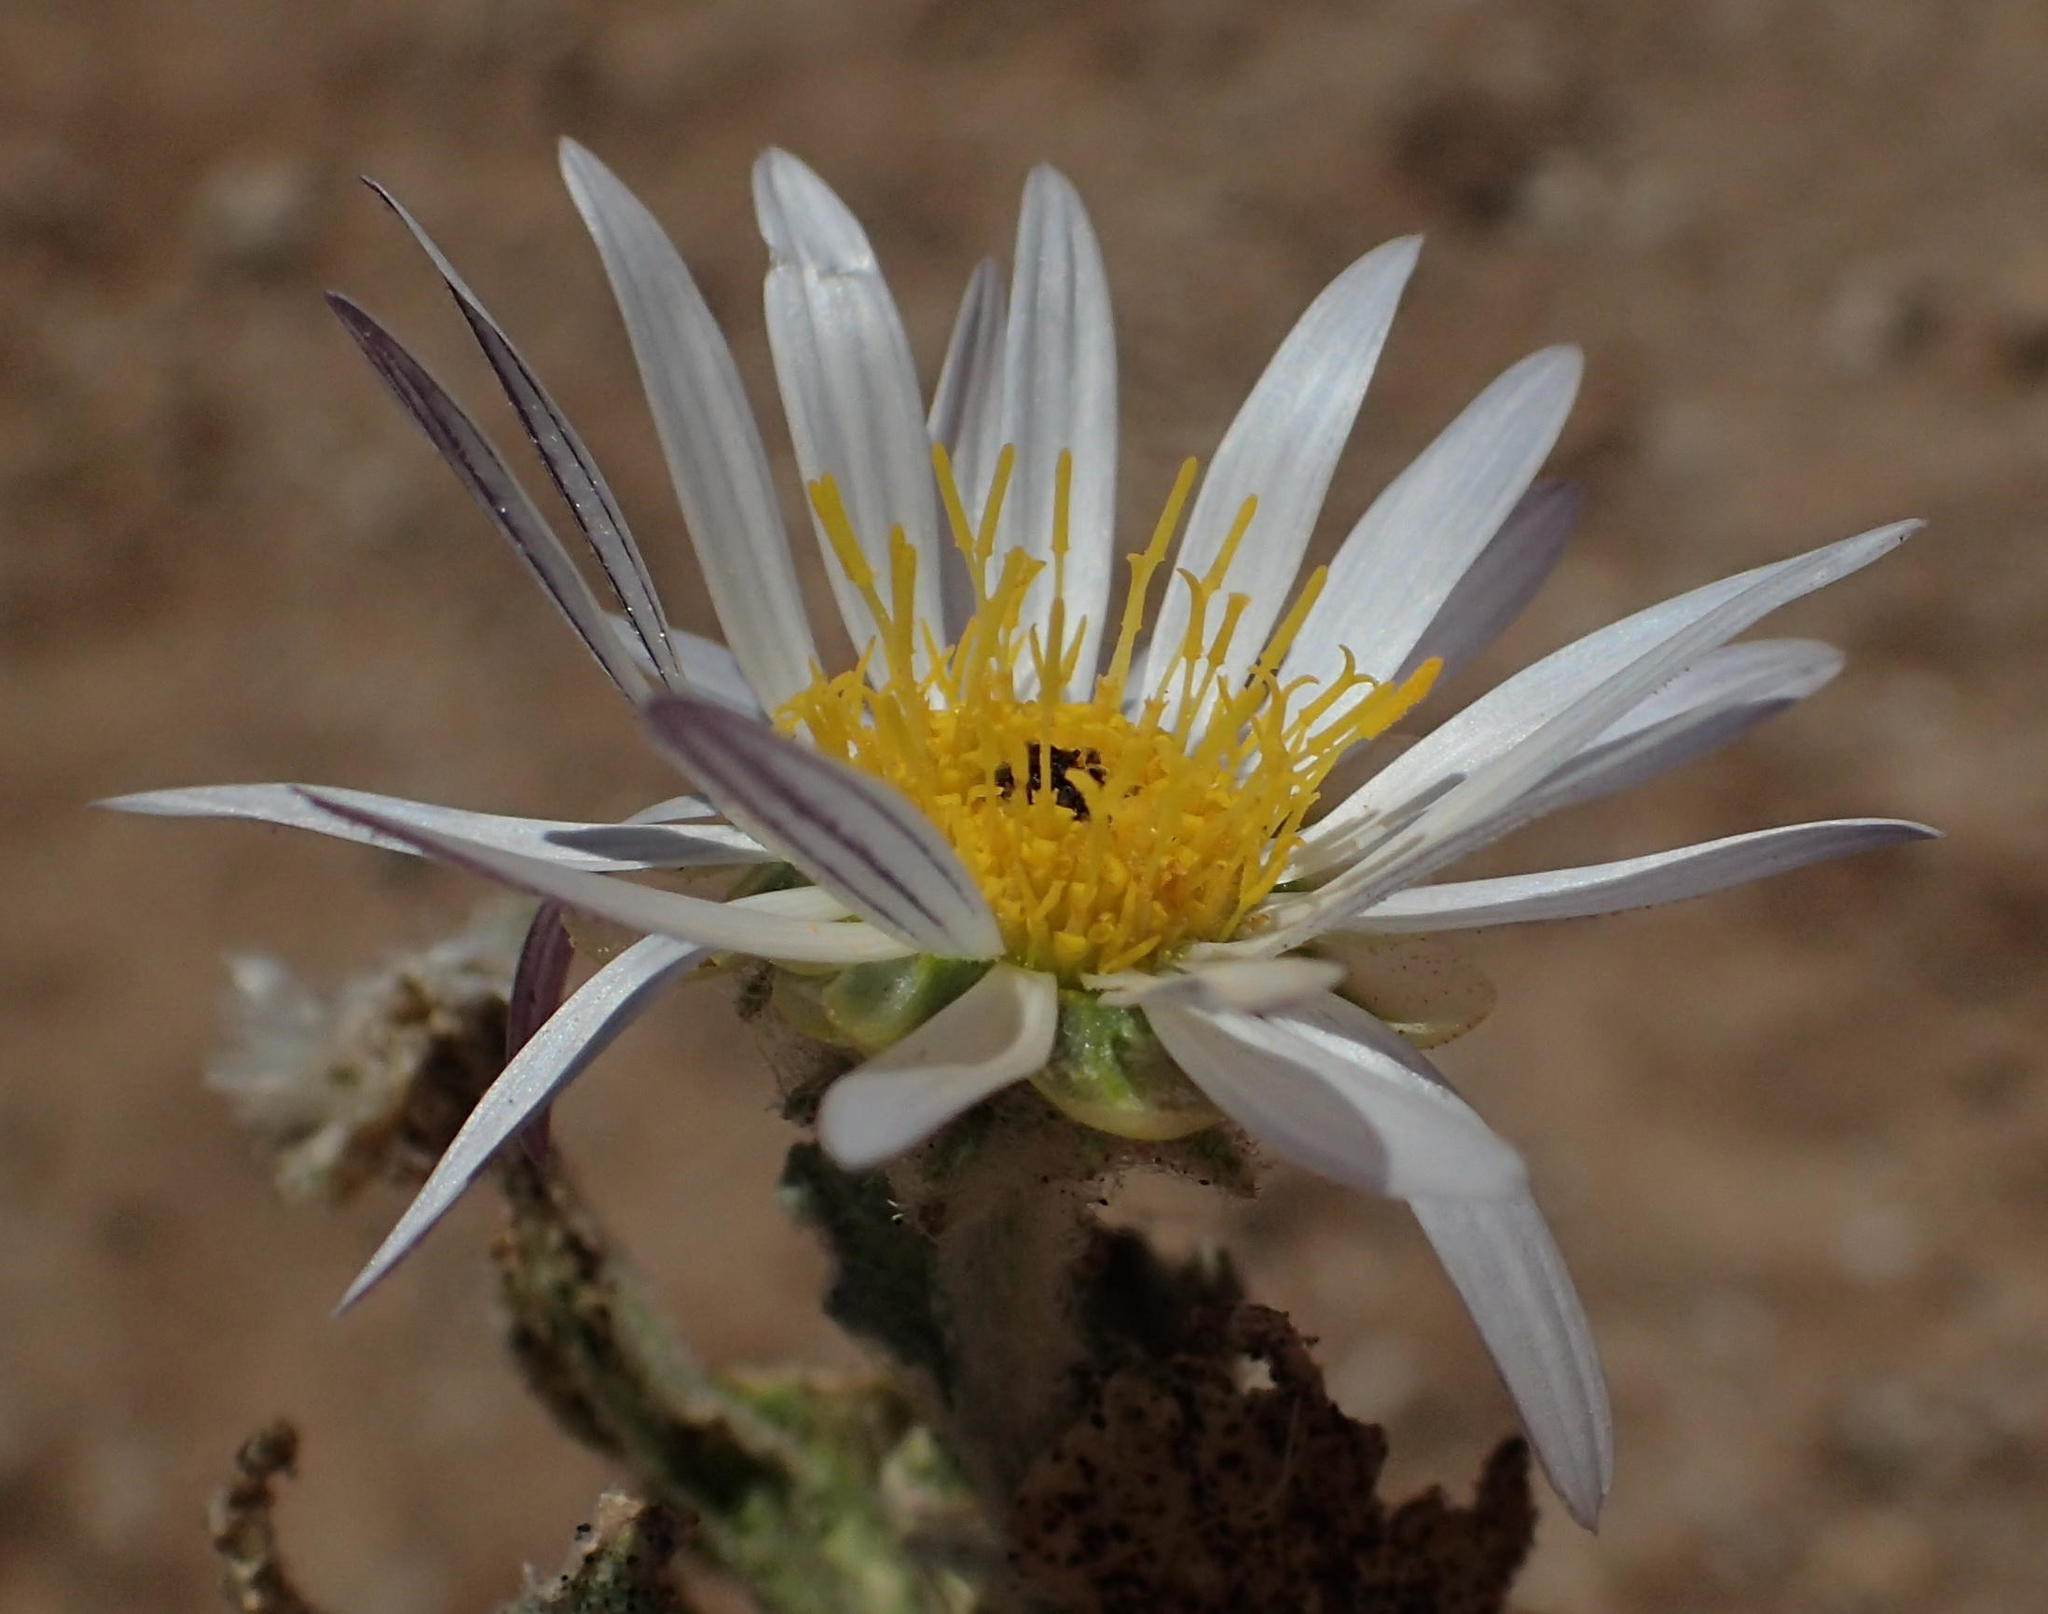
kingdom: Plantae
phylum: Tracheophyta
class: Magnoliopsida
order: Asterales
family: Asteraceae
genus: Arctotis
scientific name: Arctotis leiocarpa
